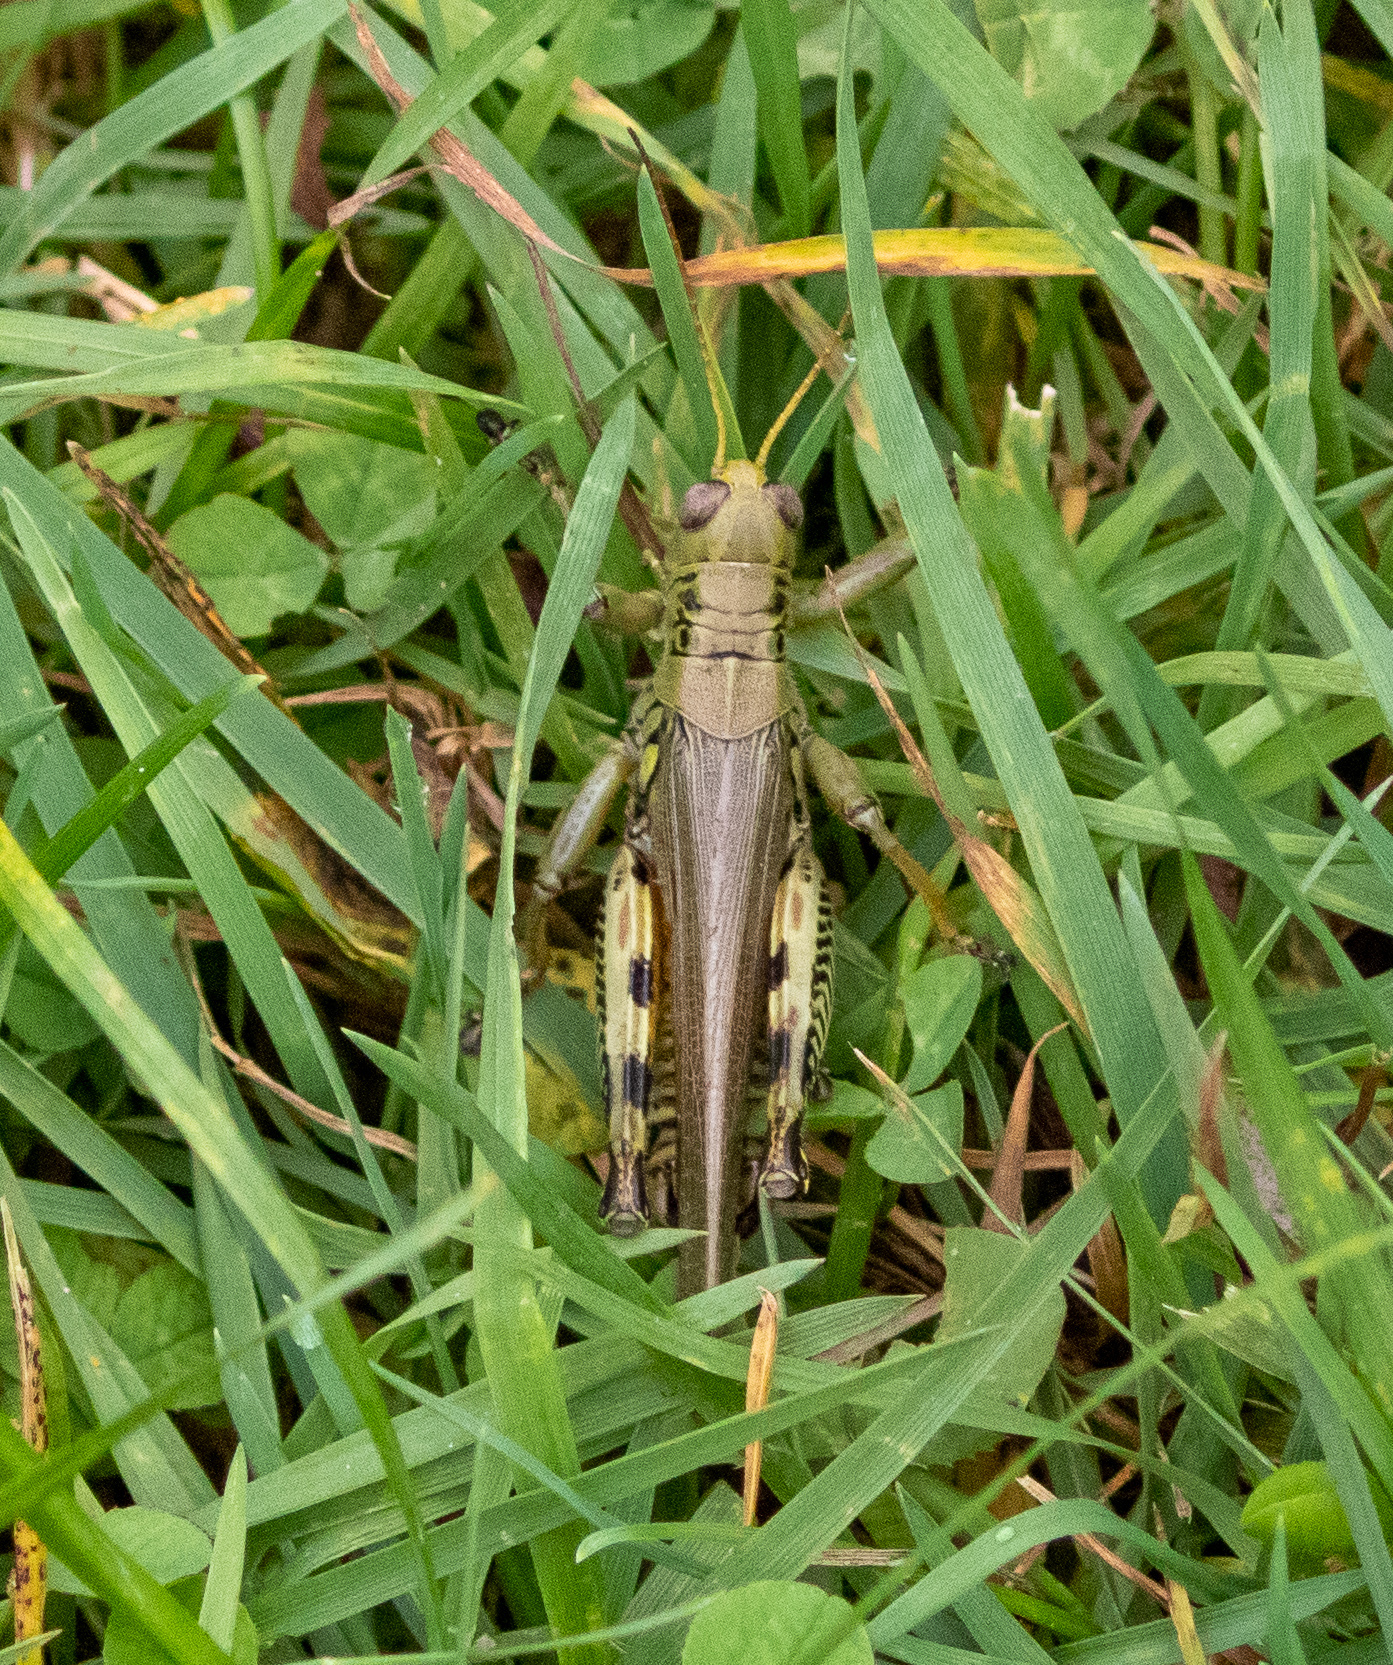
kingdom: Animalia
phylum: Arthropoda
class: Insecta
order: Orthoptera
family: Acrididae
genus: Melanoplus
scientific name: Melanoplus differentialis
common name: Differential grasshopper
